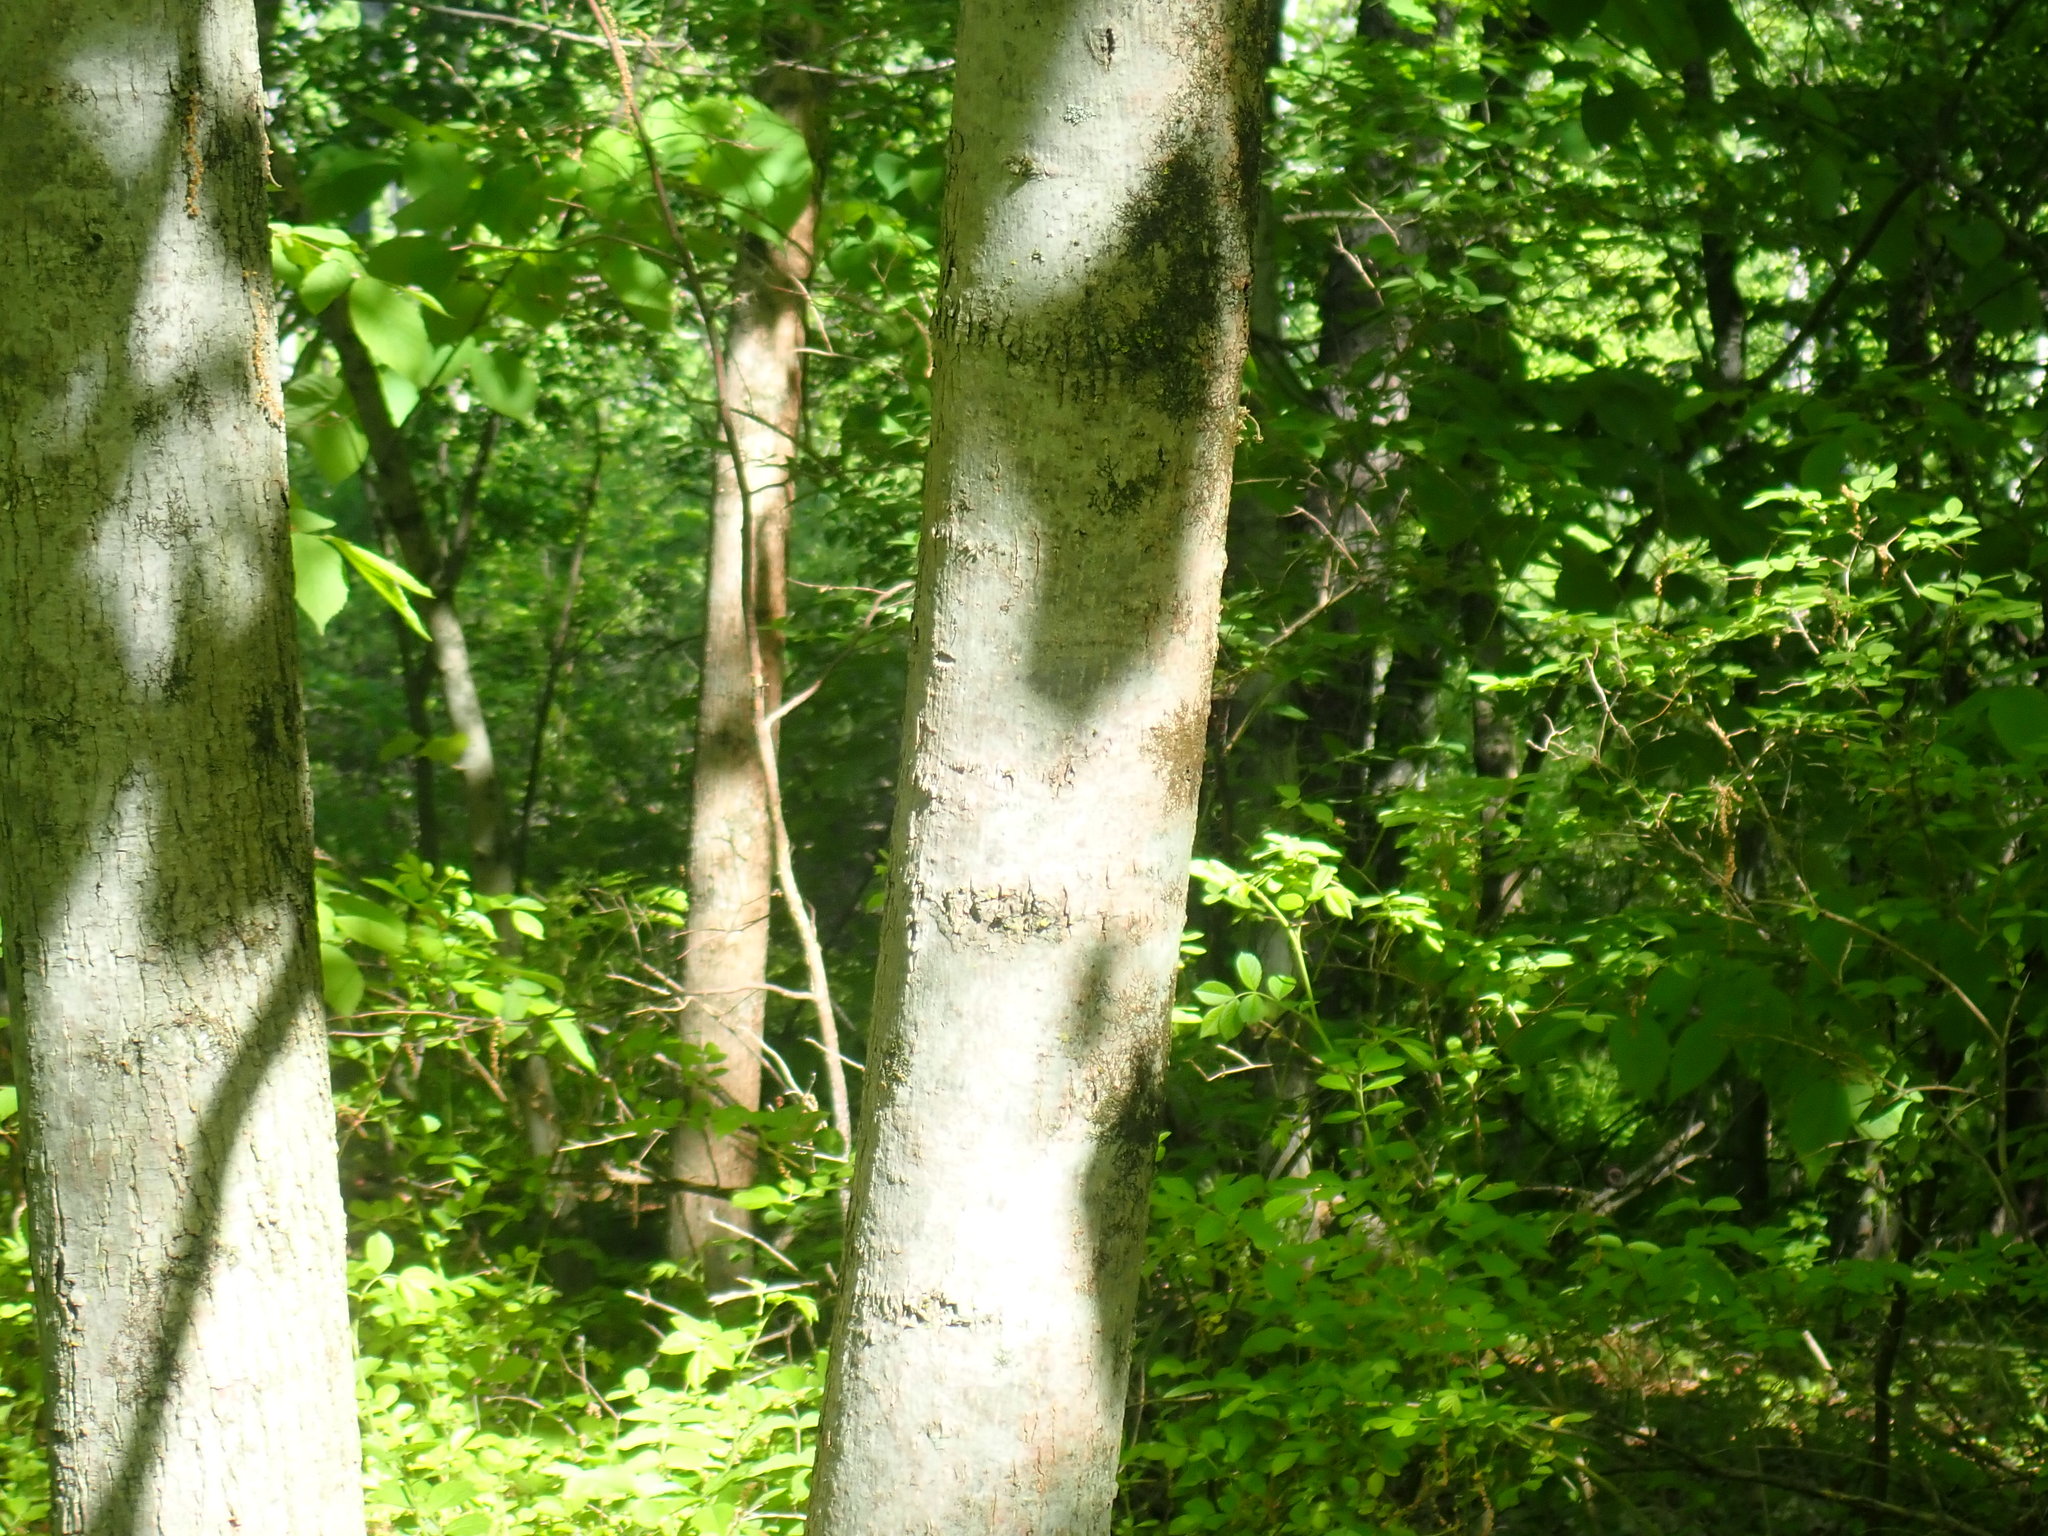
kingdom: Plantae
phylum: Tracheophyta
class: Magnoliopsida
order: Malvales
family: Malvaceae
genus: Tilia
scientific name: Tilia americana
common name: Basswood
